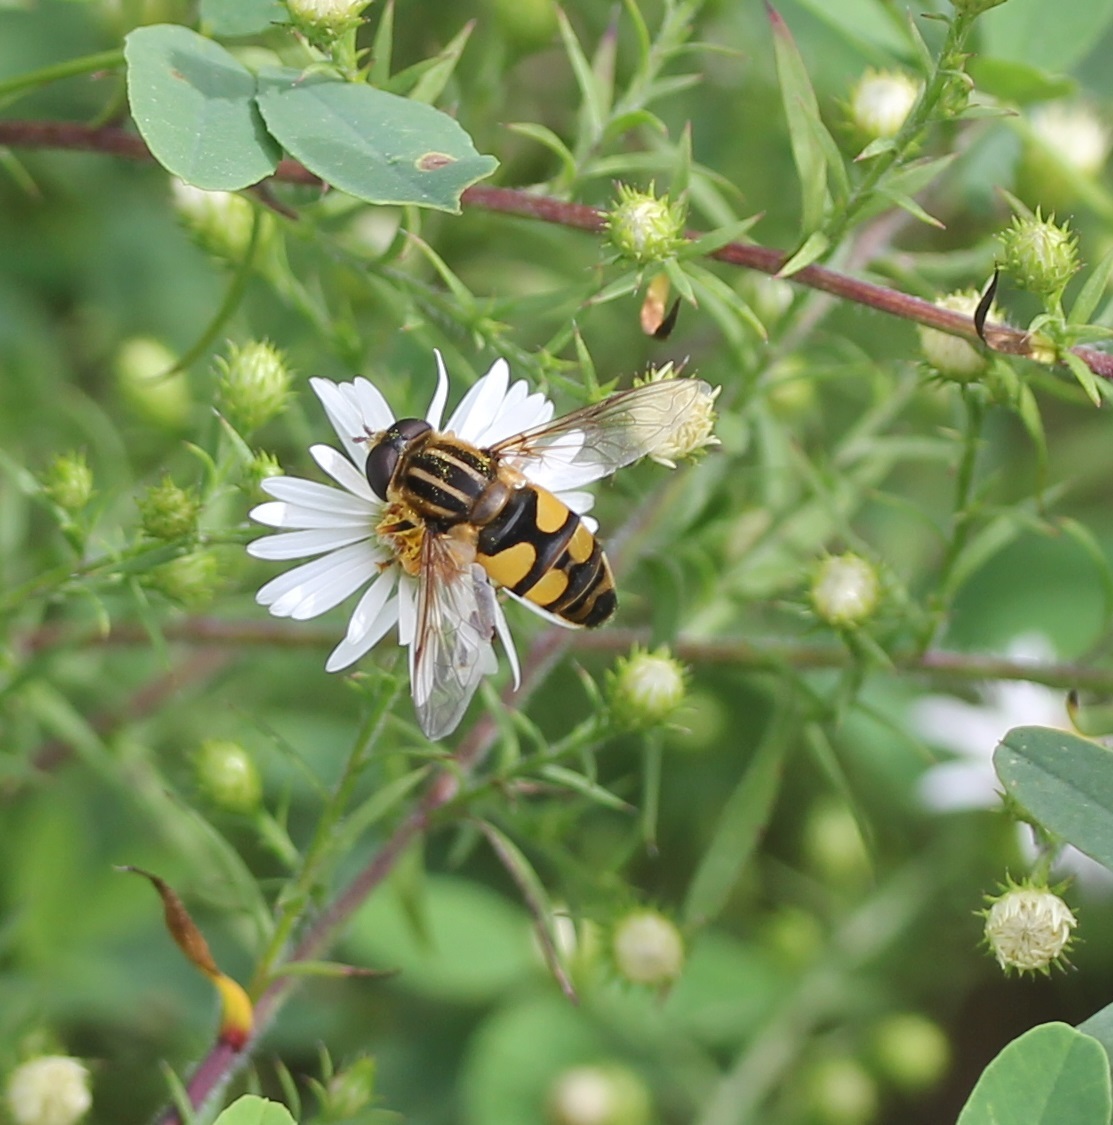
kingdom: Animalia
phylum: Arthropoda
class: Insecta
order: Diptera
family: Syrphidae
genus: Helophilus
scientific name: Helophilus fasciatus
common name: Narrow-headed marsh fly
